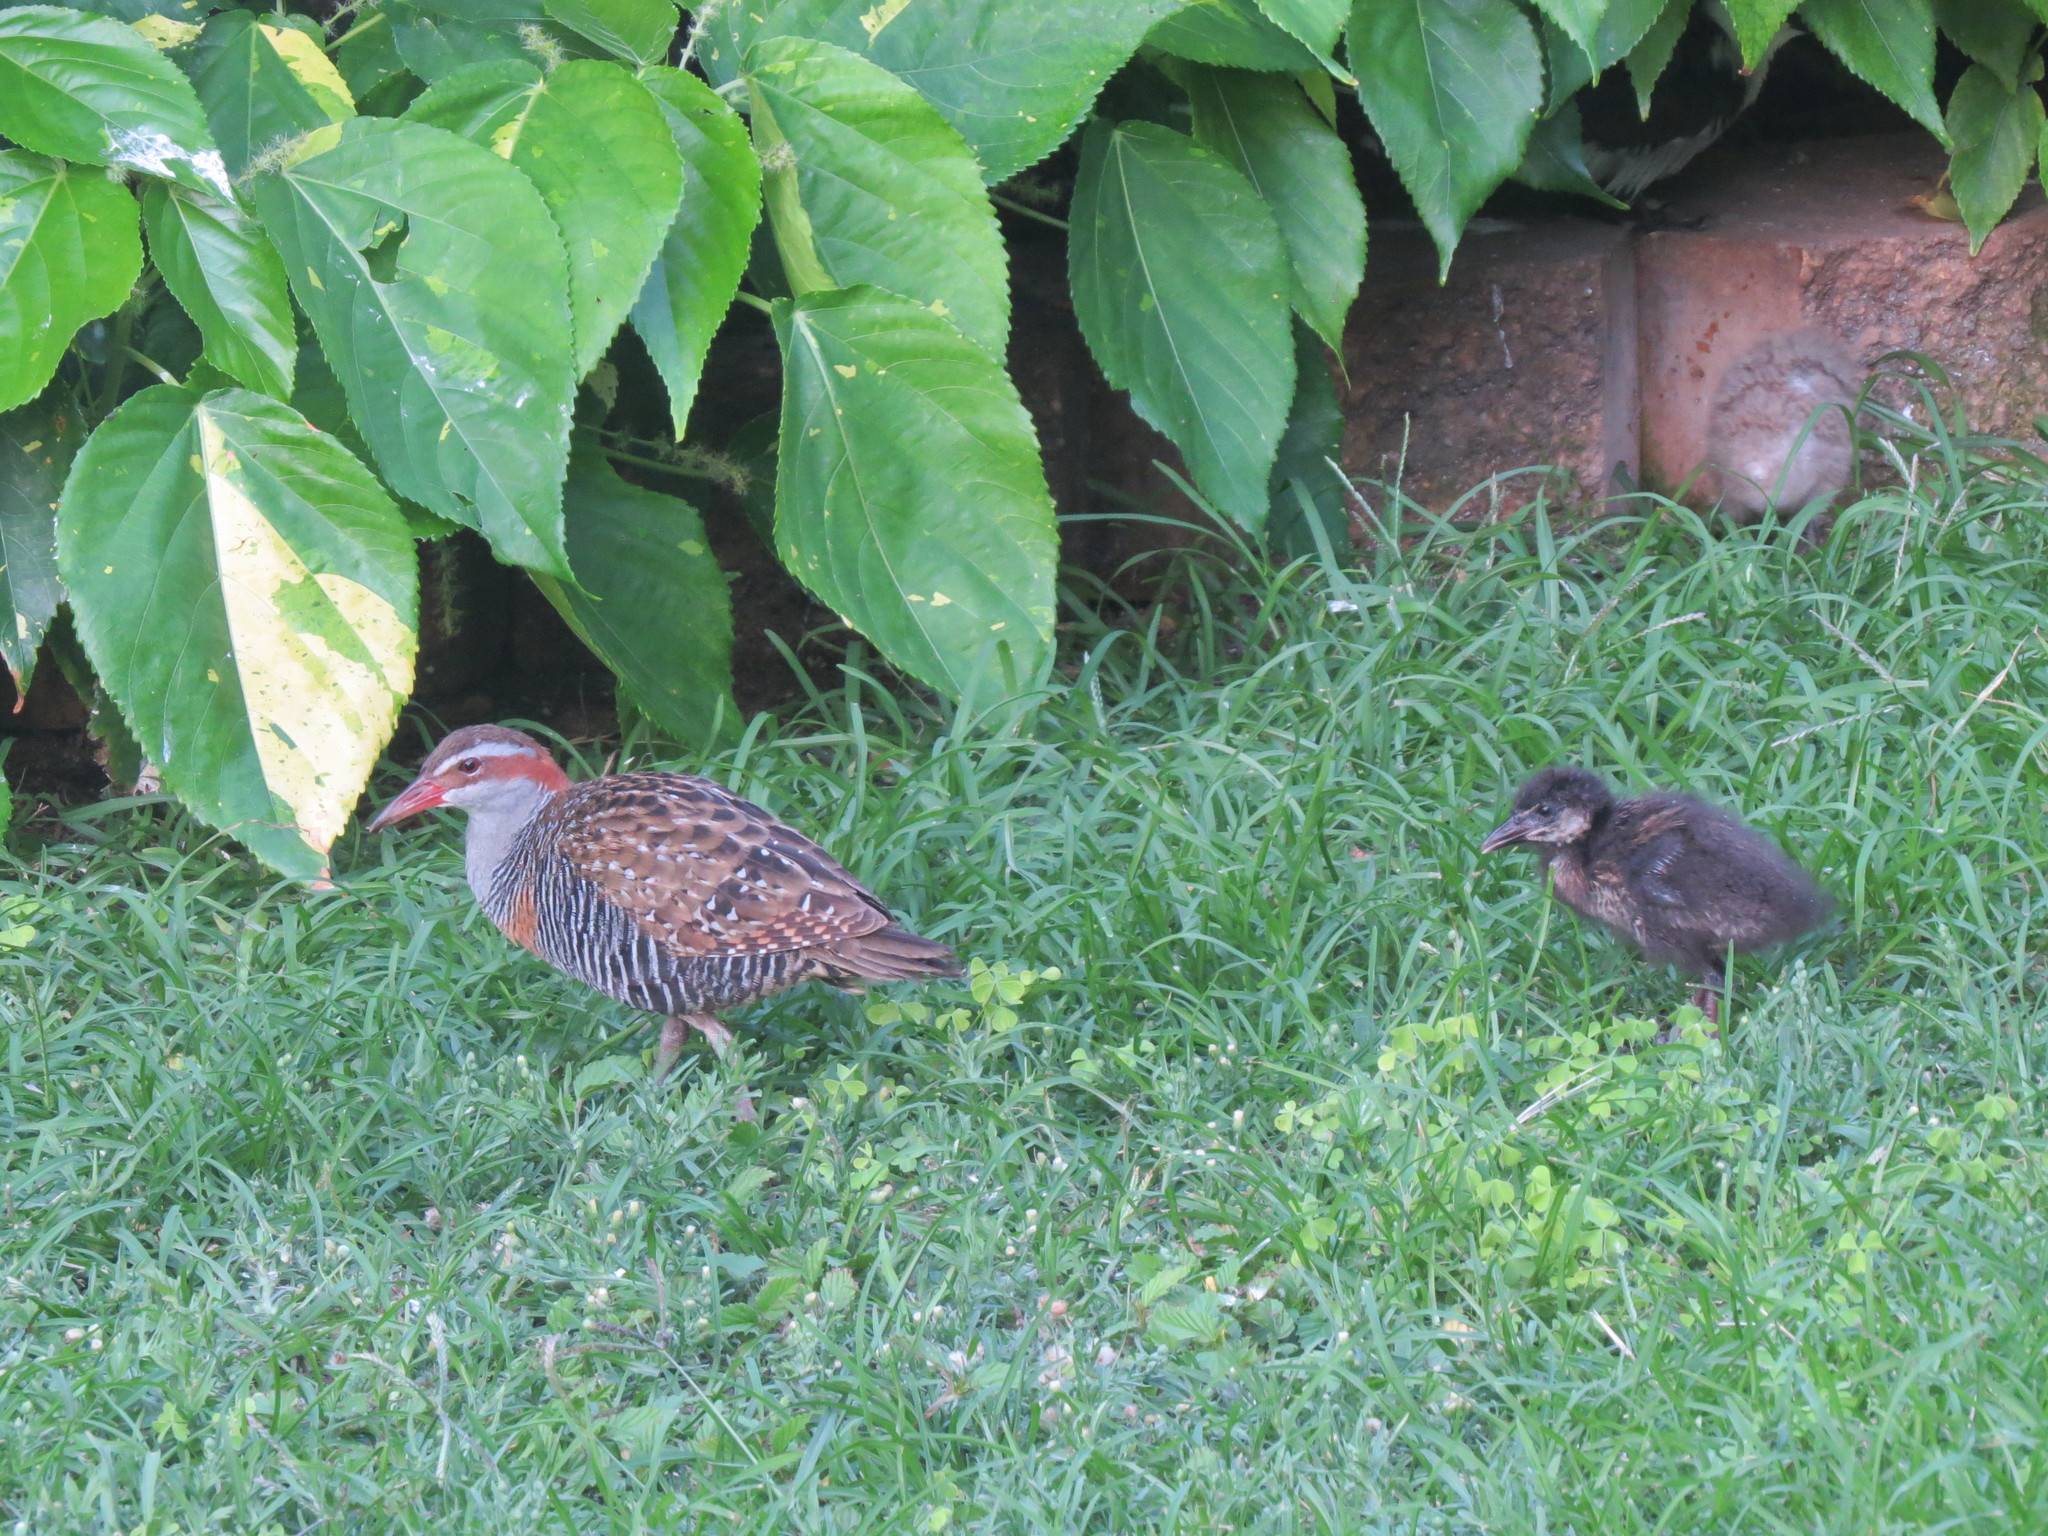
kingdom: Animalia
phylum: Chordata
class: Aves
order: Gruiformes
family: Rallidae
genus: Gallirallus
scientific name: Gallirallus philippensis
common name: Buff-banded rail
